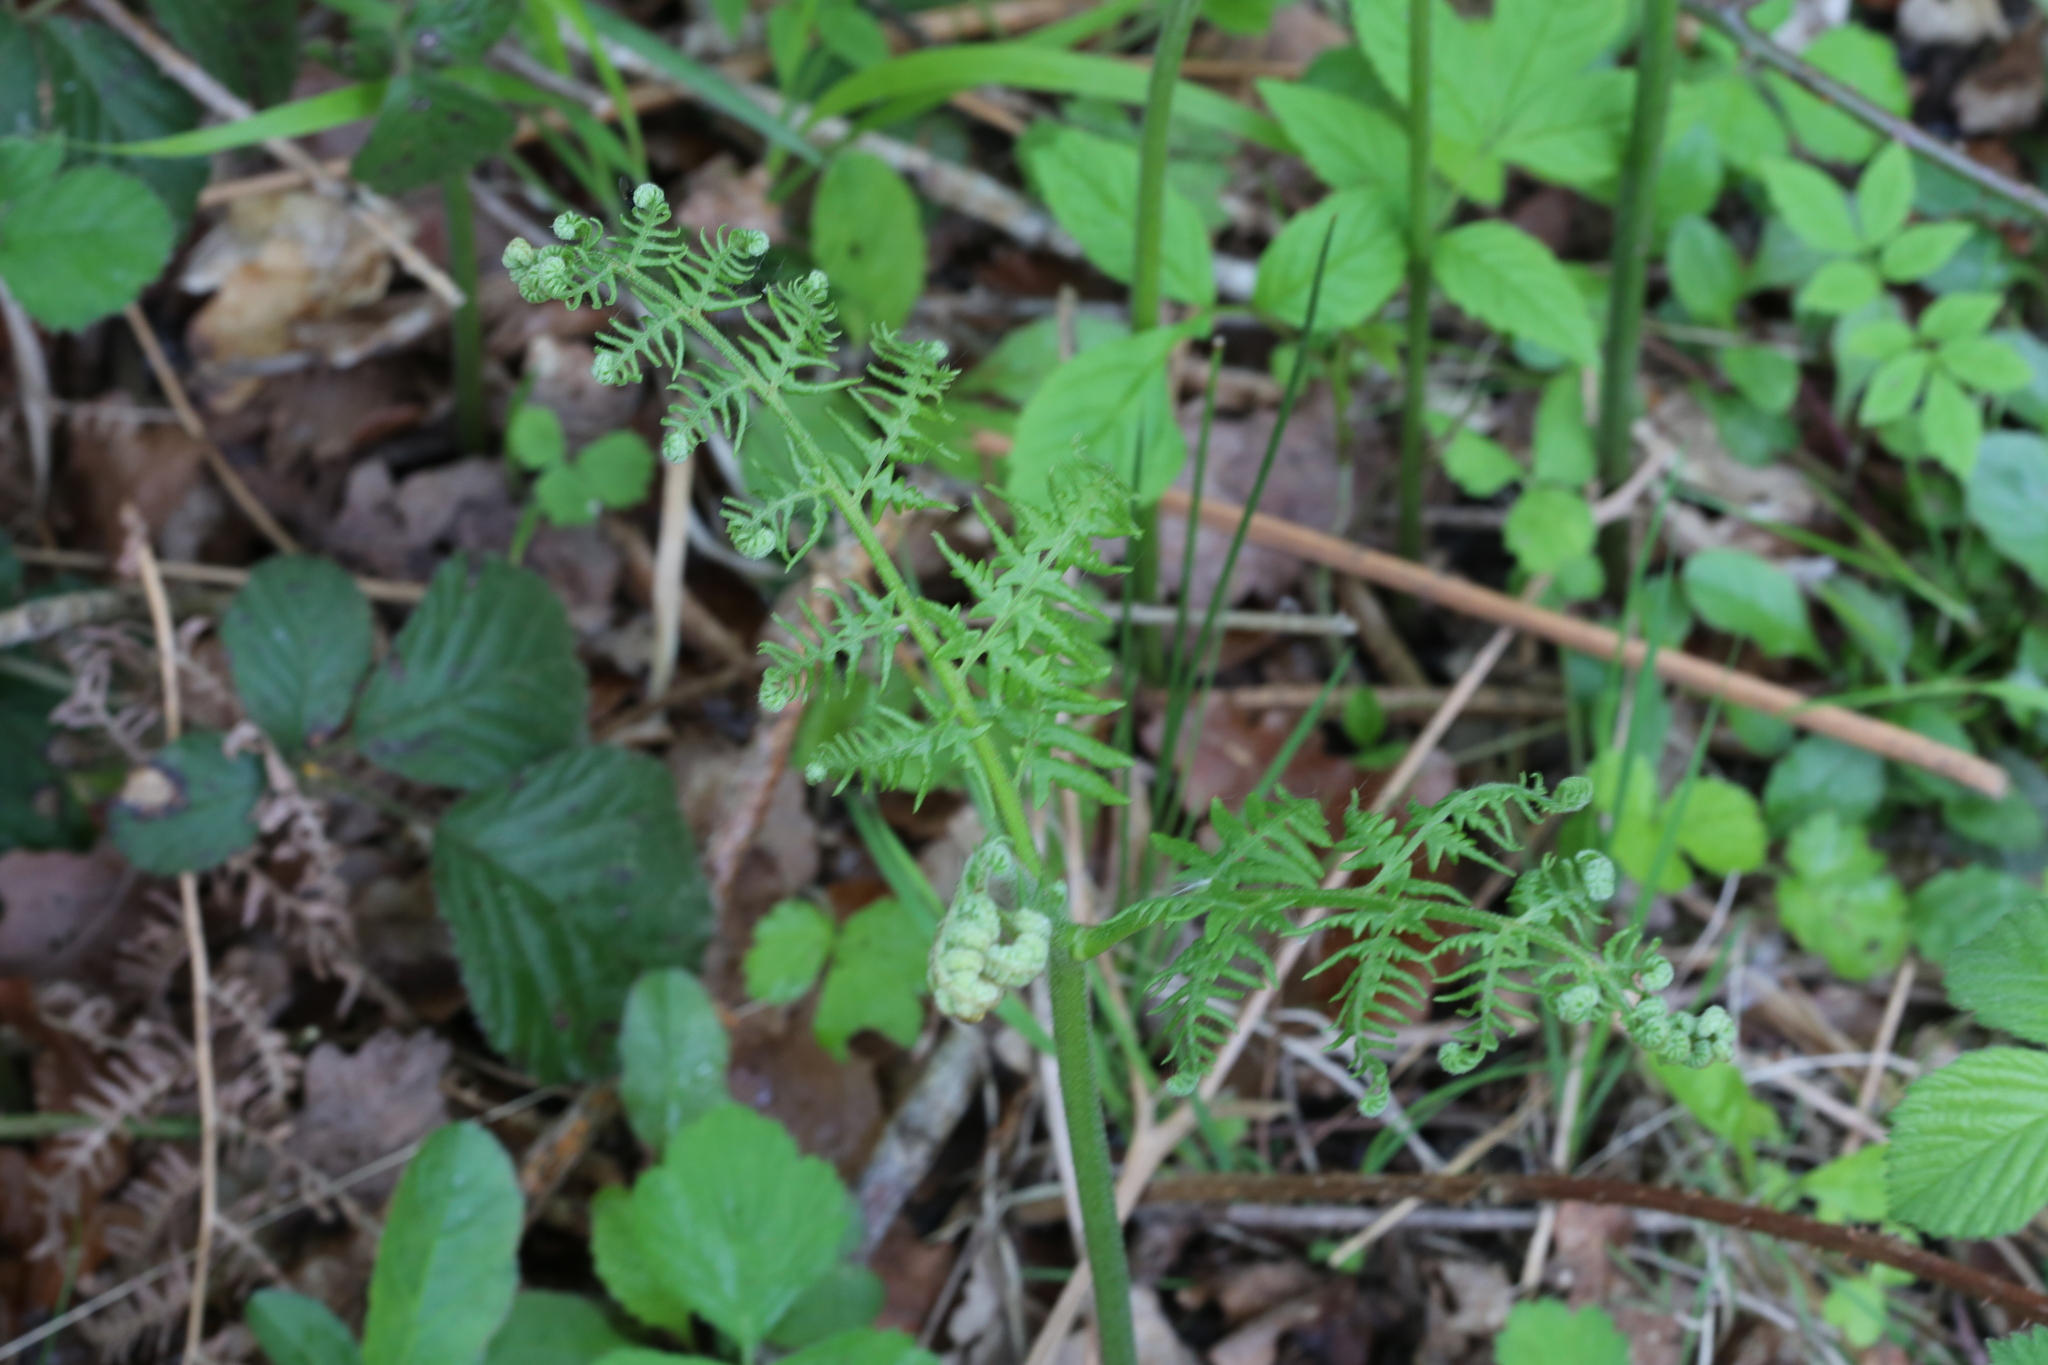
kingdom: Plantae
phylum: Tracheophyta
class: Polypodiopsida
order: Polypodiales
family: Dennstaedtiaceae
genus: Pteridium
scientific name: Pteridium aquilinum
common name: Bracken
